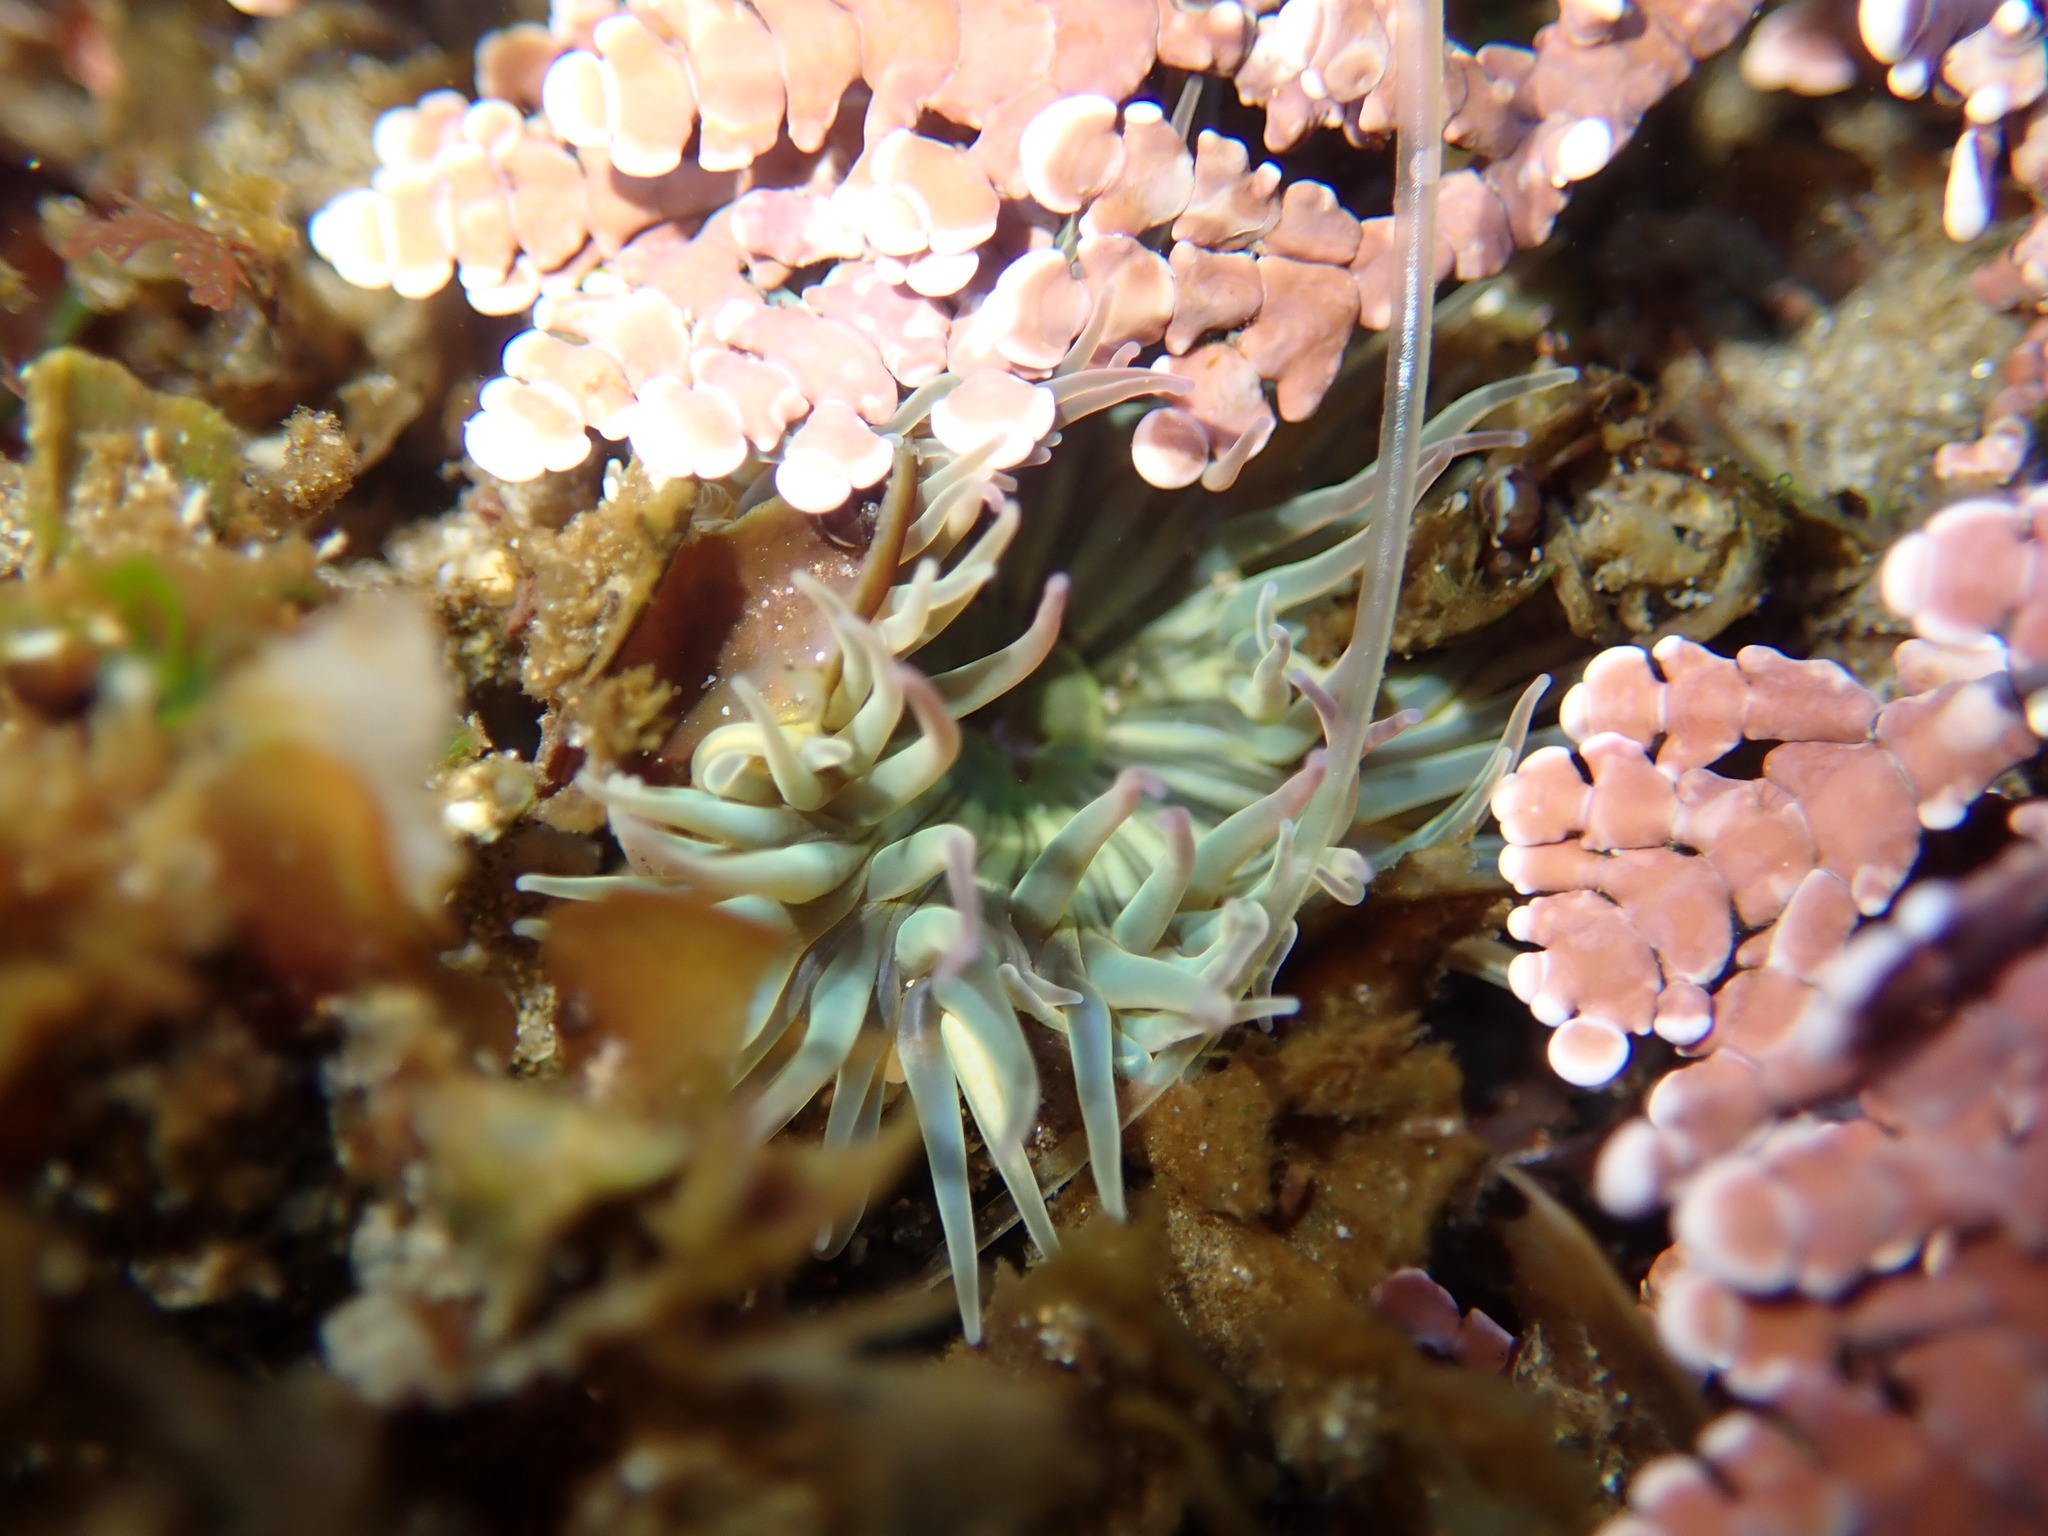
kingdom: Animalia
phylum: Cnidaria
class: Anthozoa
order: Actiniaria
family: Actiniidae
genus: Anthopleura
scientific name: Anthopleura sola
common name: Sun anemone
